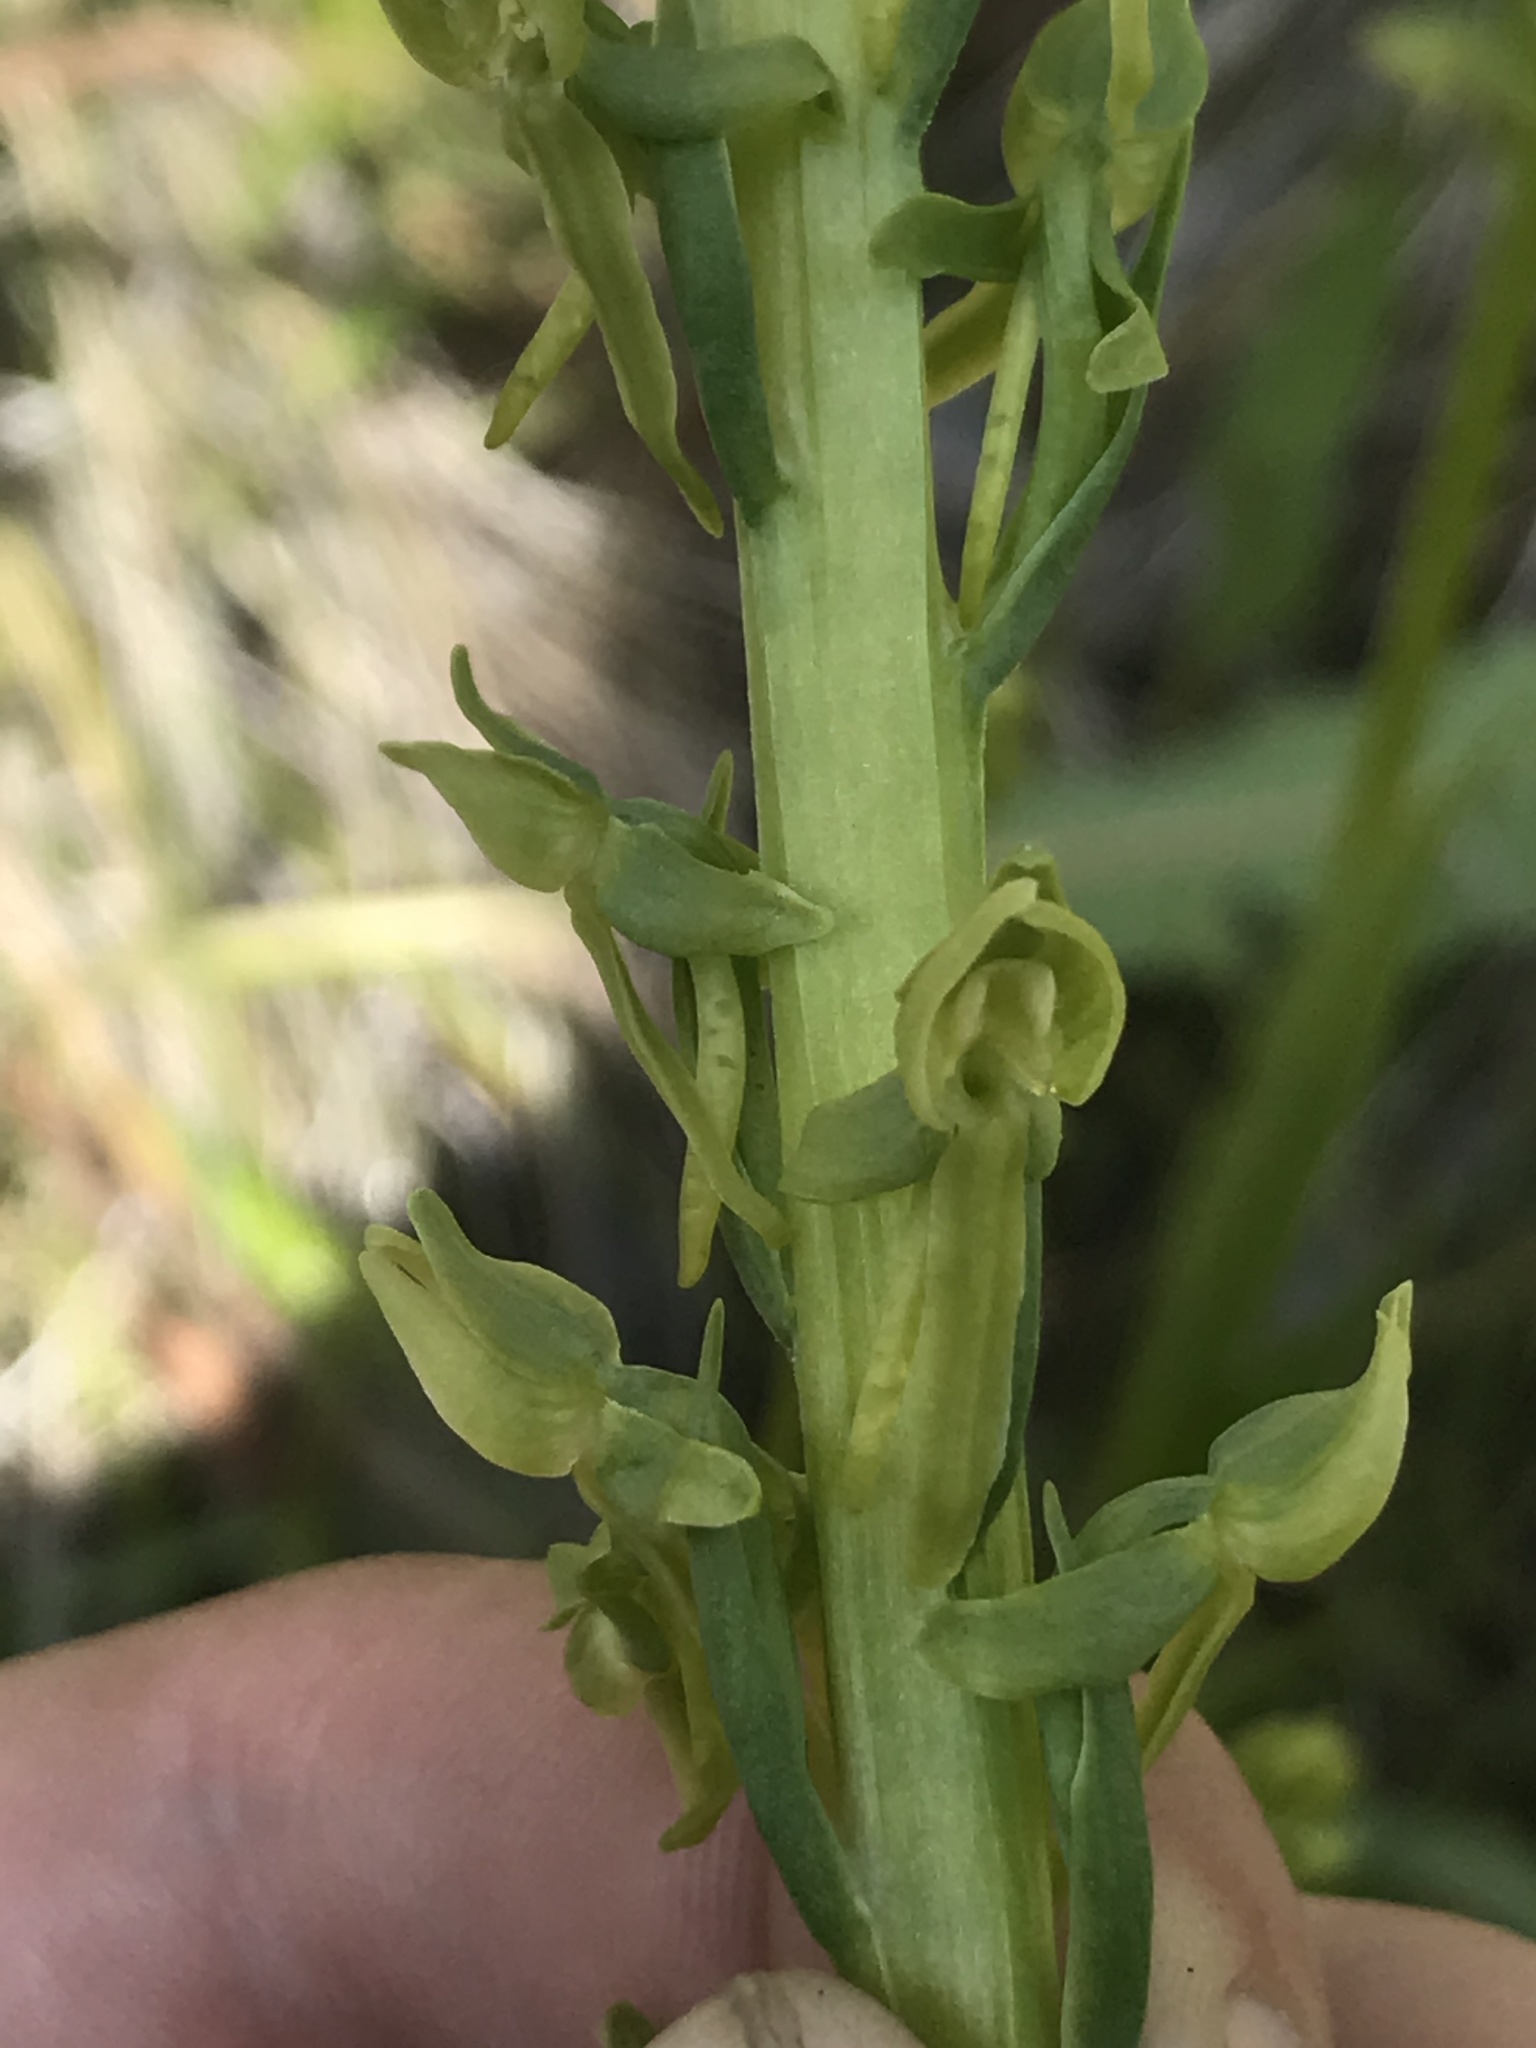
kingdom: Plantae
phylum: Tracheophyta
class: Liliopsida
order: Asparagales
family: Orchidaceae
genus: Platanthera
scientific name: Platanthera sparsiflora
